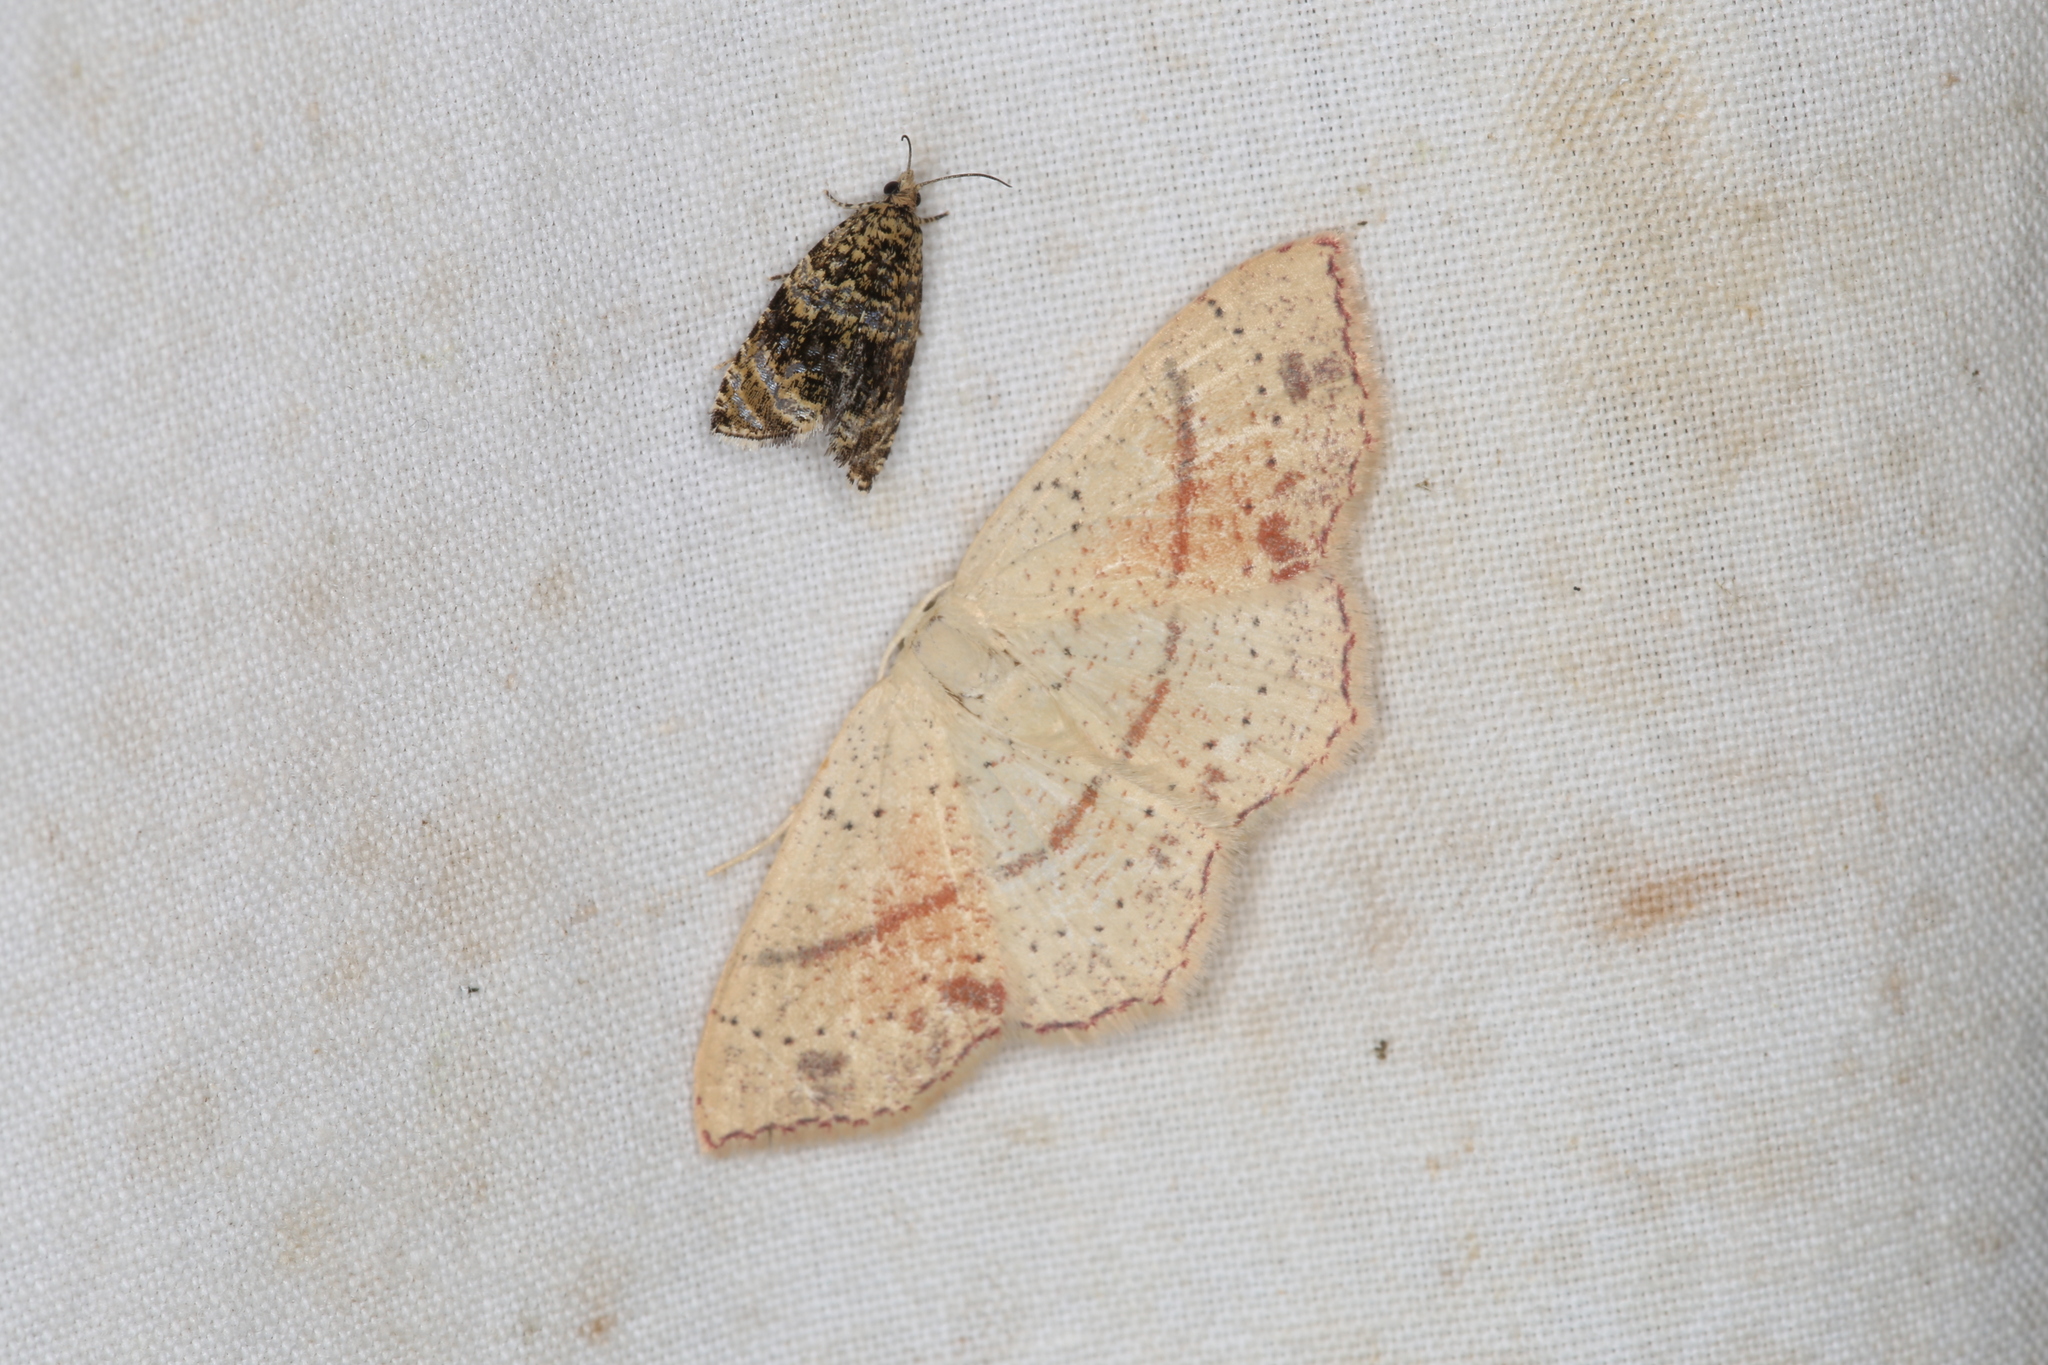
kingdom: Animalia
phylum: Arthropoda
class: Insecta
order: Lepidoptera
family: Geometridae
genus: Cyclophora
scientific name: Cyclophora punctaria
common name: Maiden's blush
